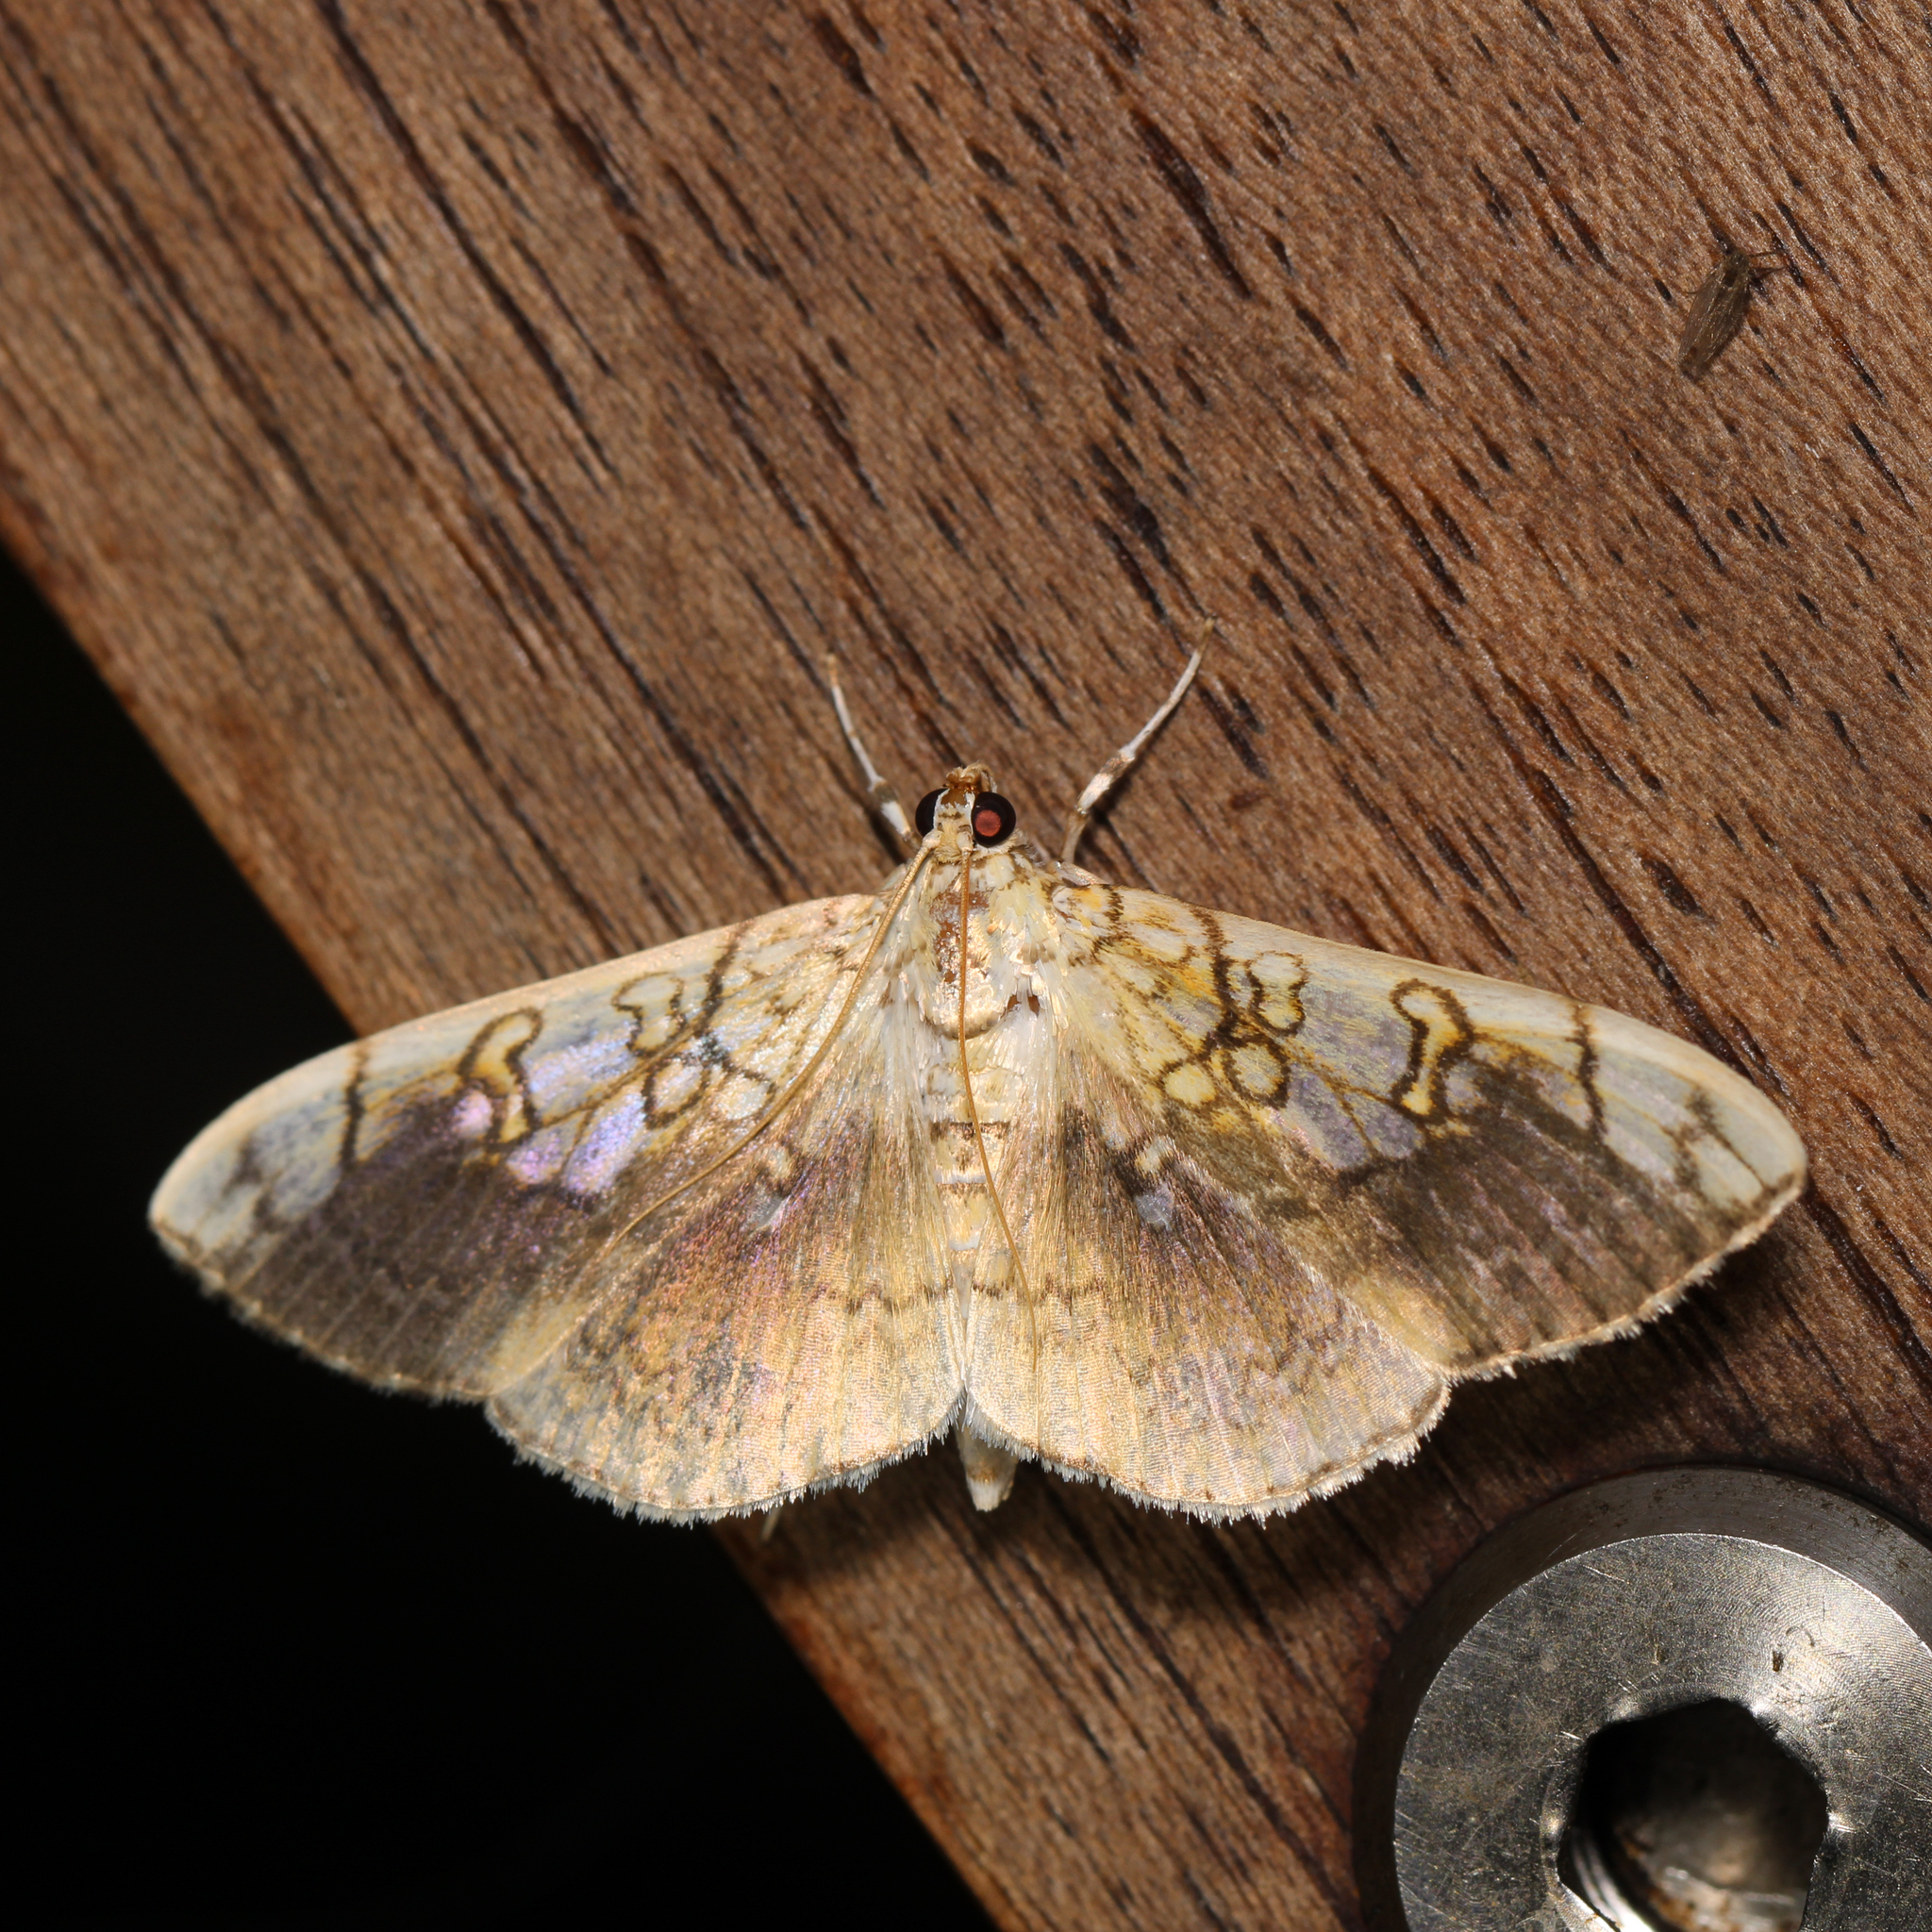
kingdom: Animalia
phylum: Arthropoda
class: Insecta
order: Lepidoptera
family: Crambidae
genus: Pantographa
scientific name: Pantographa limata
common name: Basswood leafroller moth
